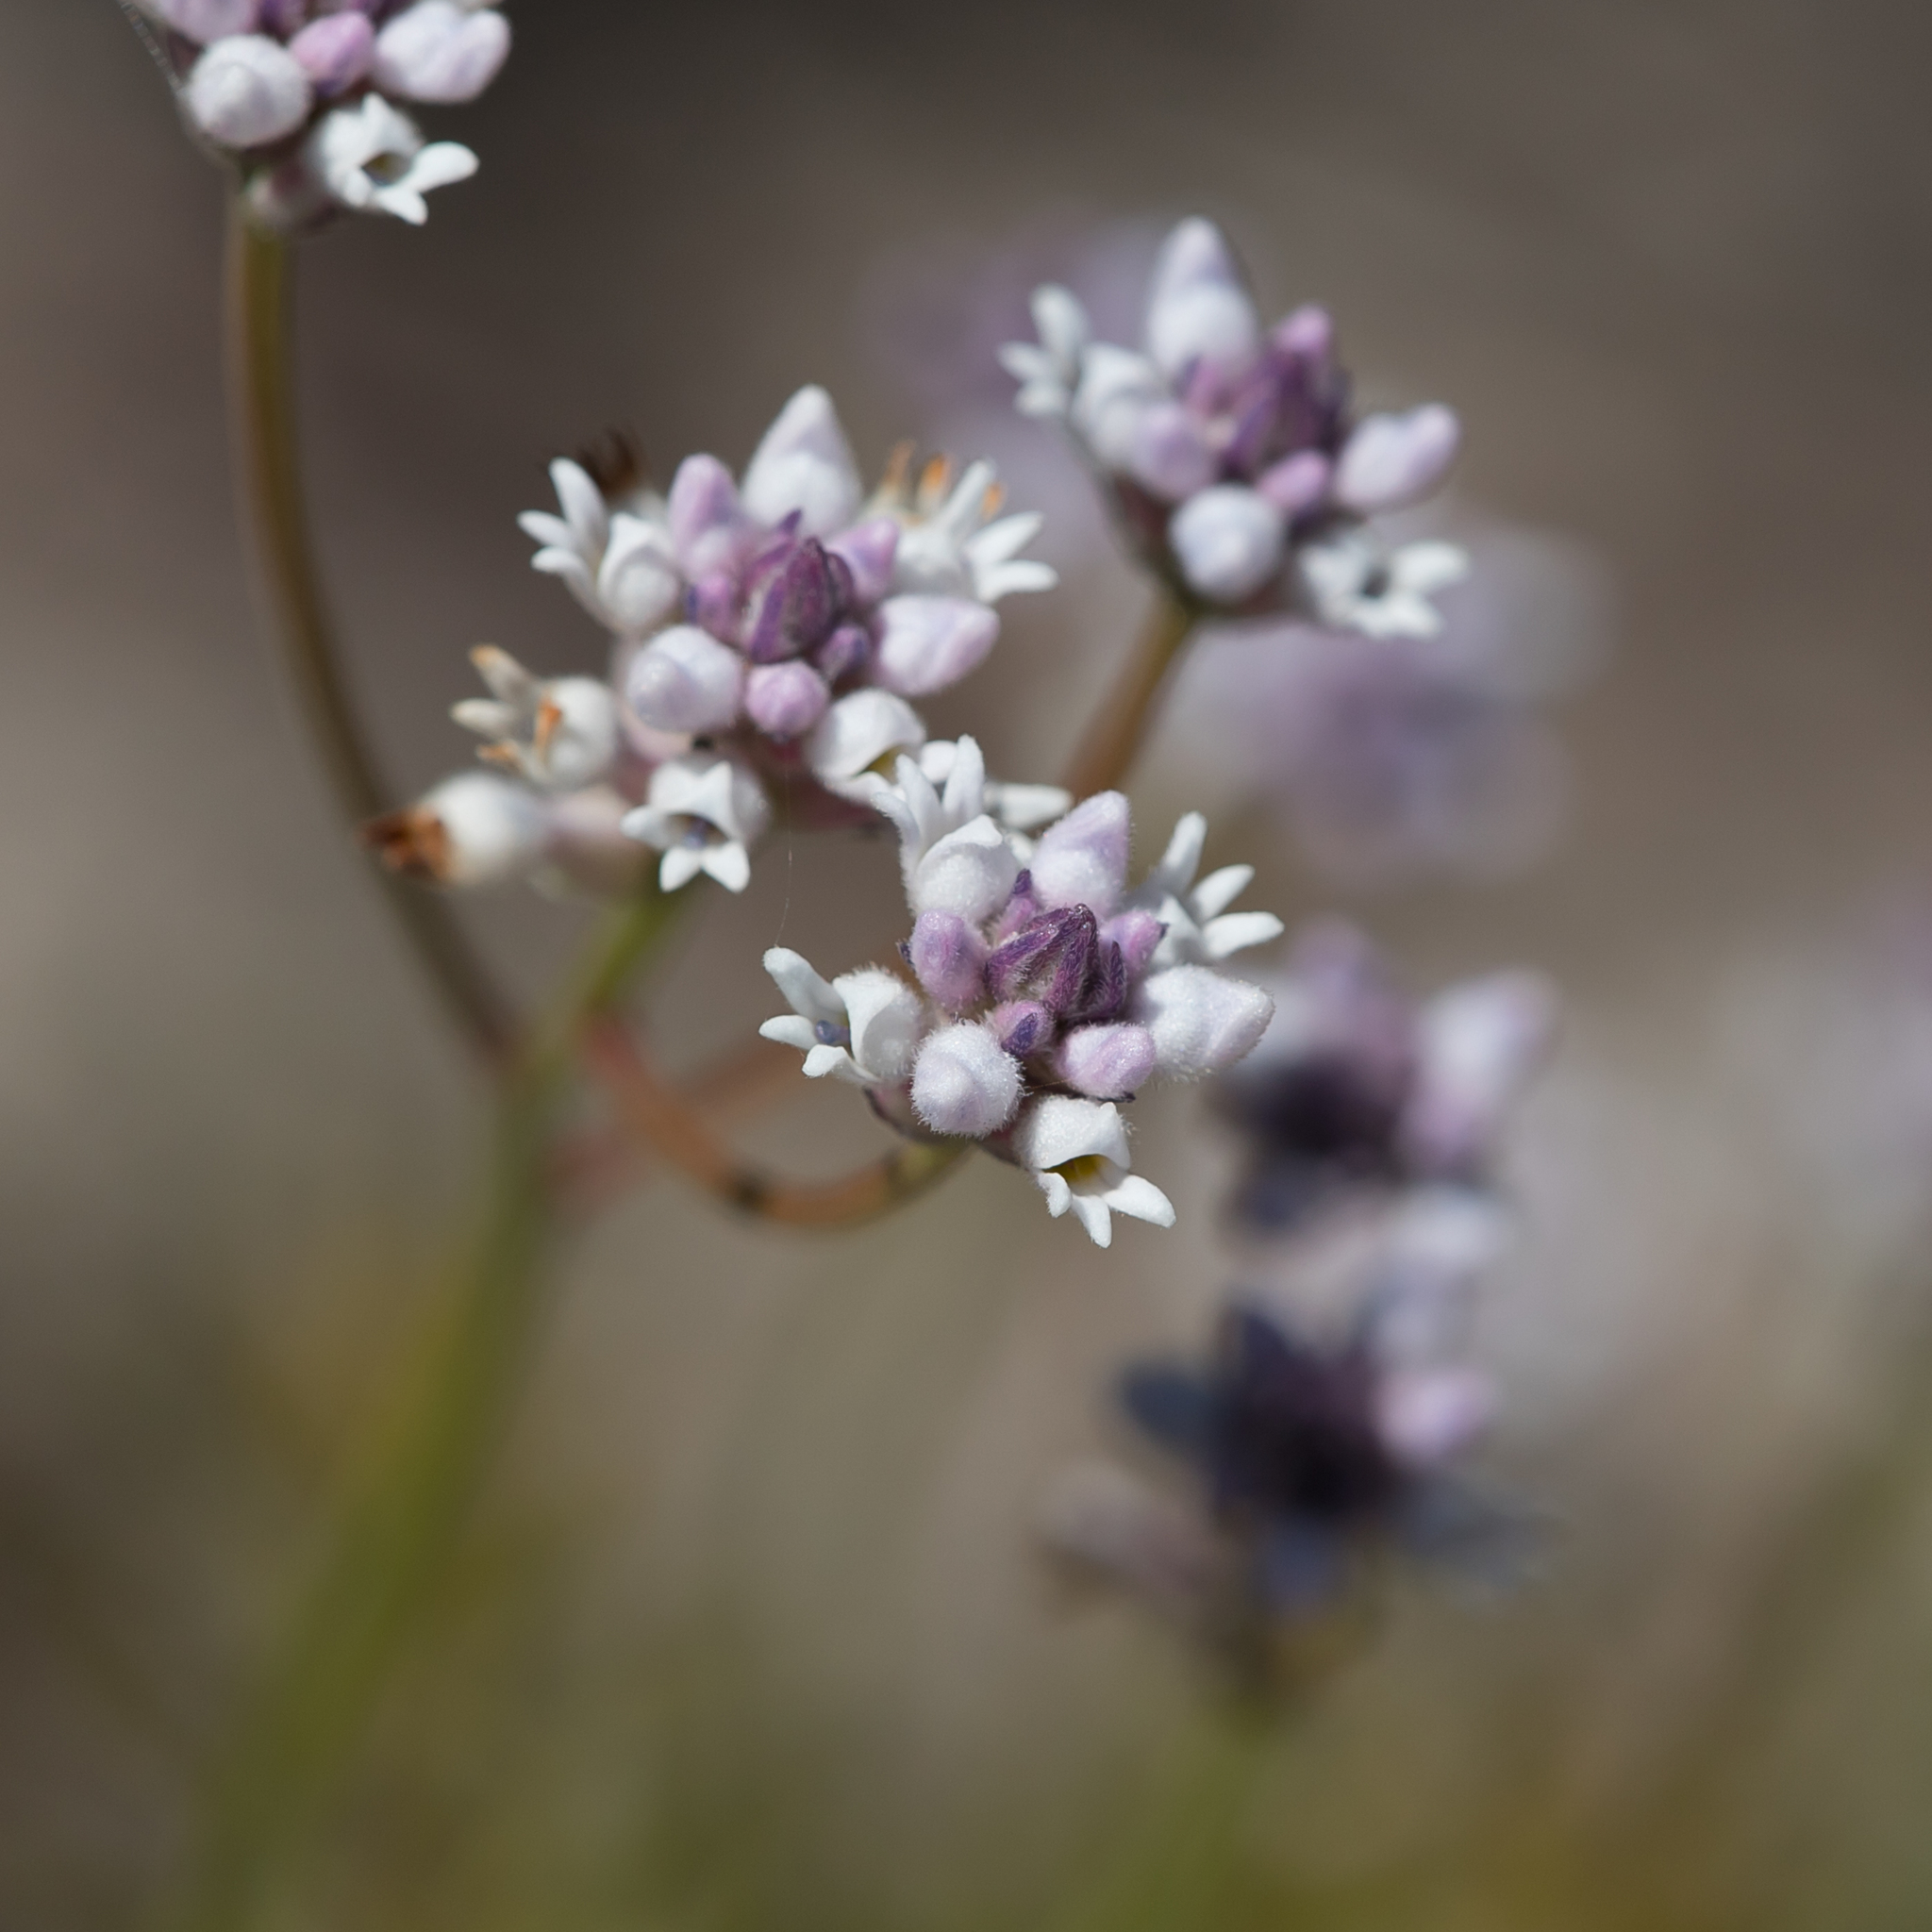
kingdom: Plantae
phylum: Tracheophyta
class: Magnoliopsida
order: Proteales
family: Proteaceae
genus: Conospermum
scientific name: Conospermum patens
